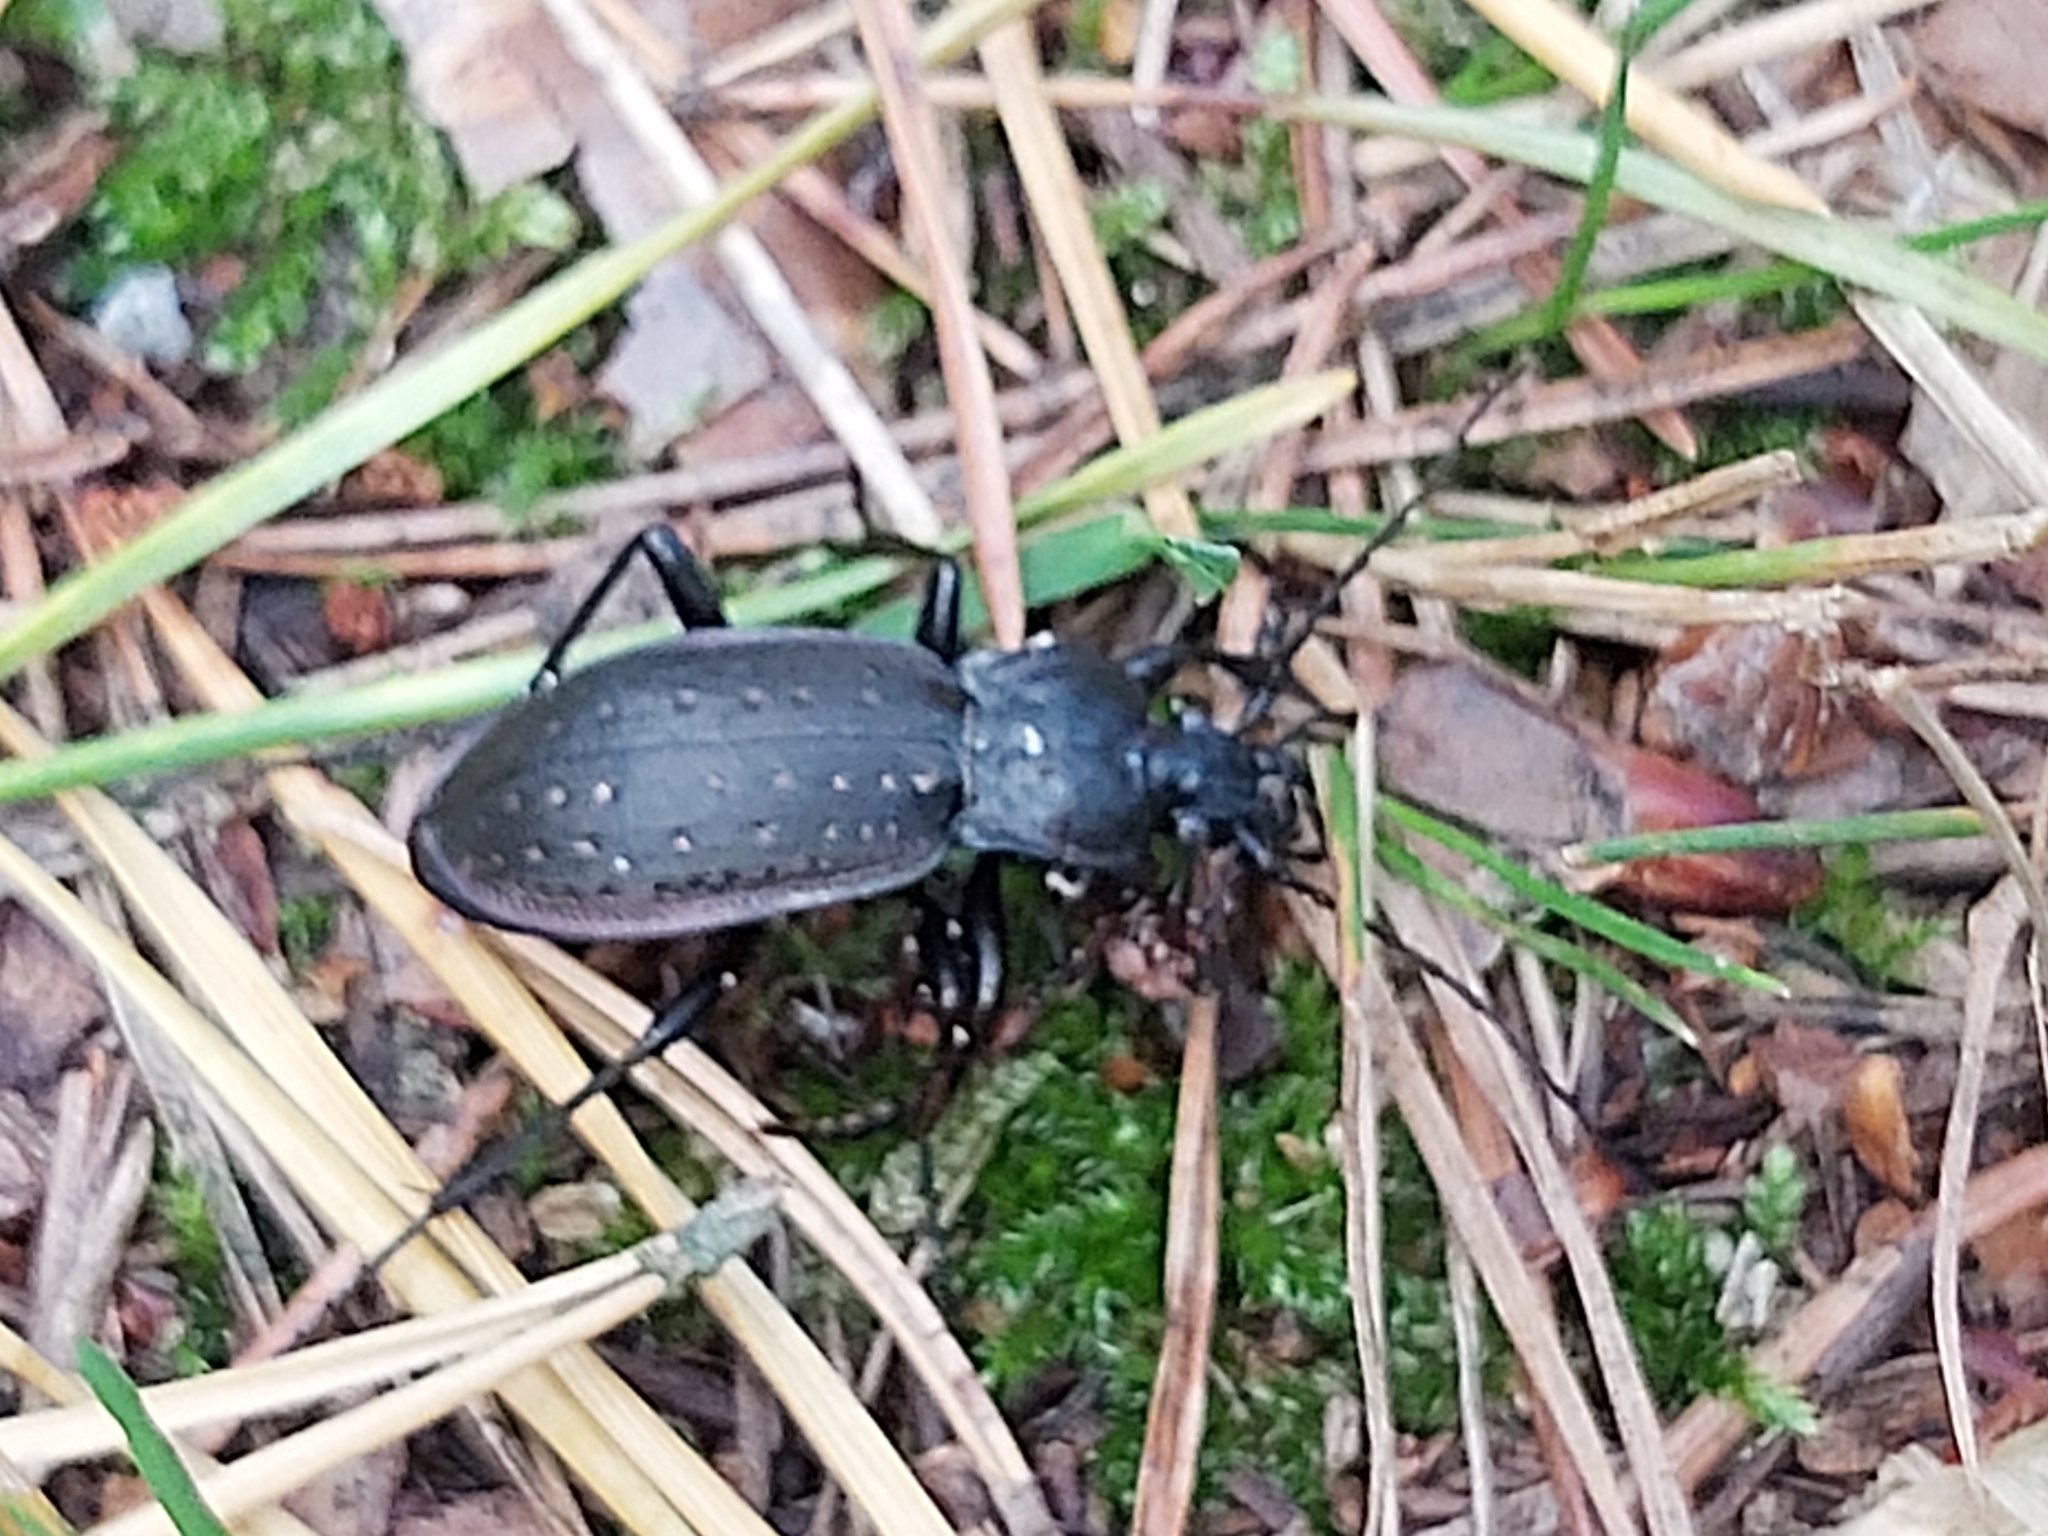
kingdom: Animalia
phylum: Arthropoda
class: Insecta
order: Coleoptera
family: Carabidae
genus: Carabus
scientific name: Carabus hortensis
